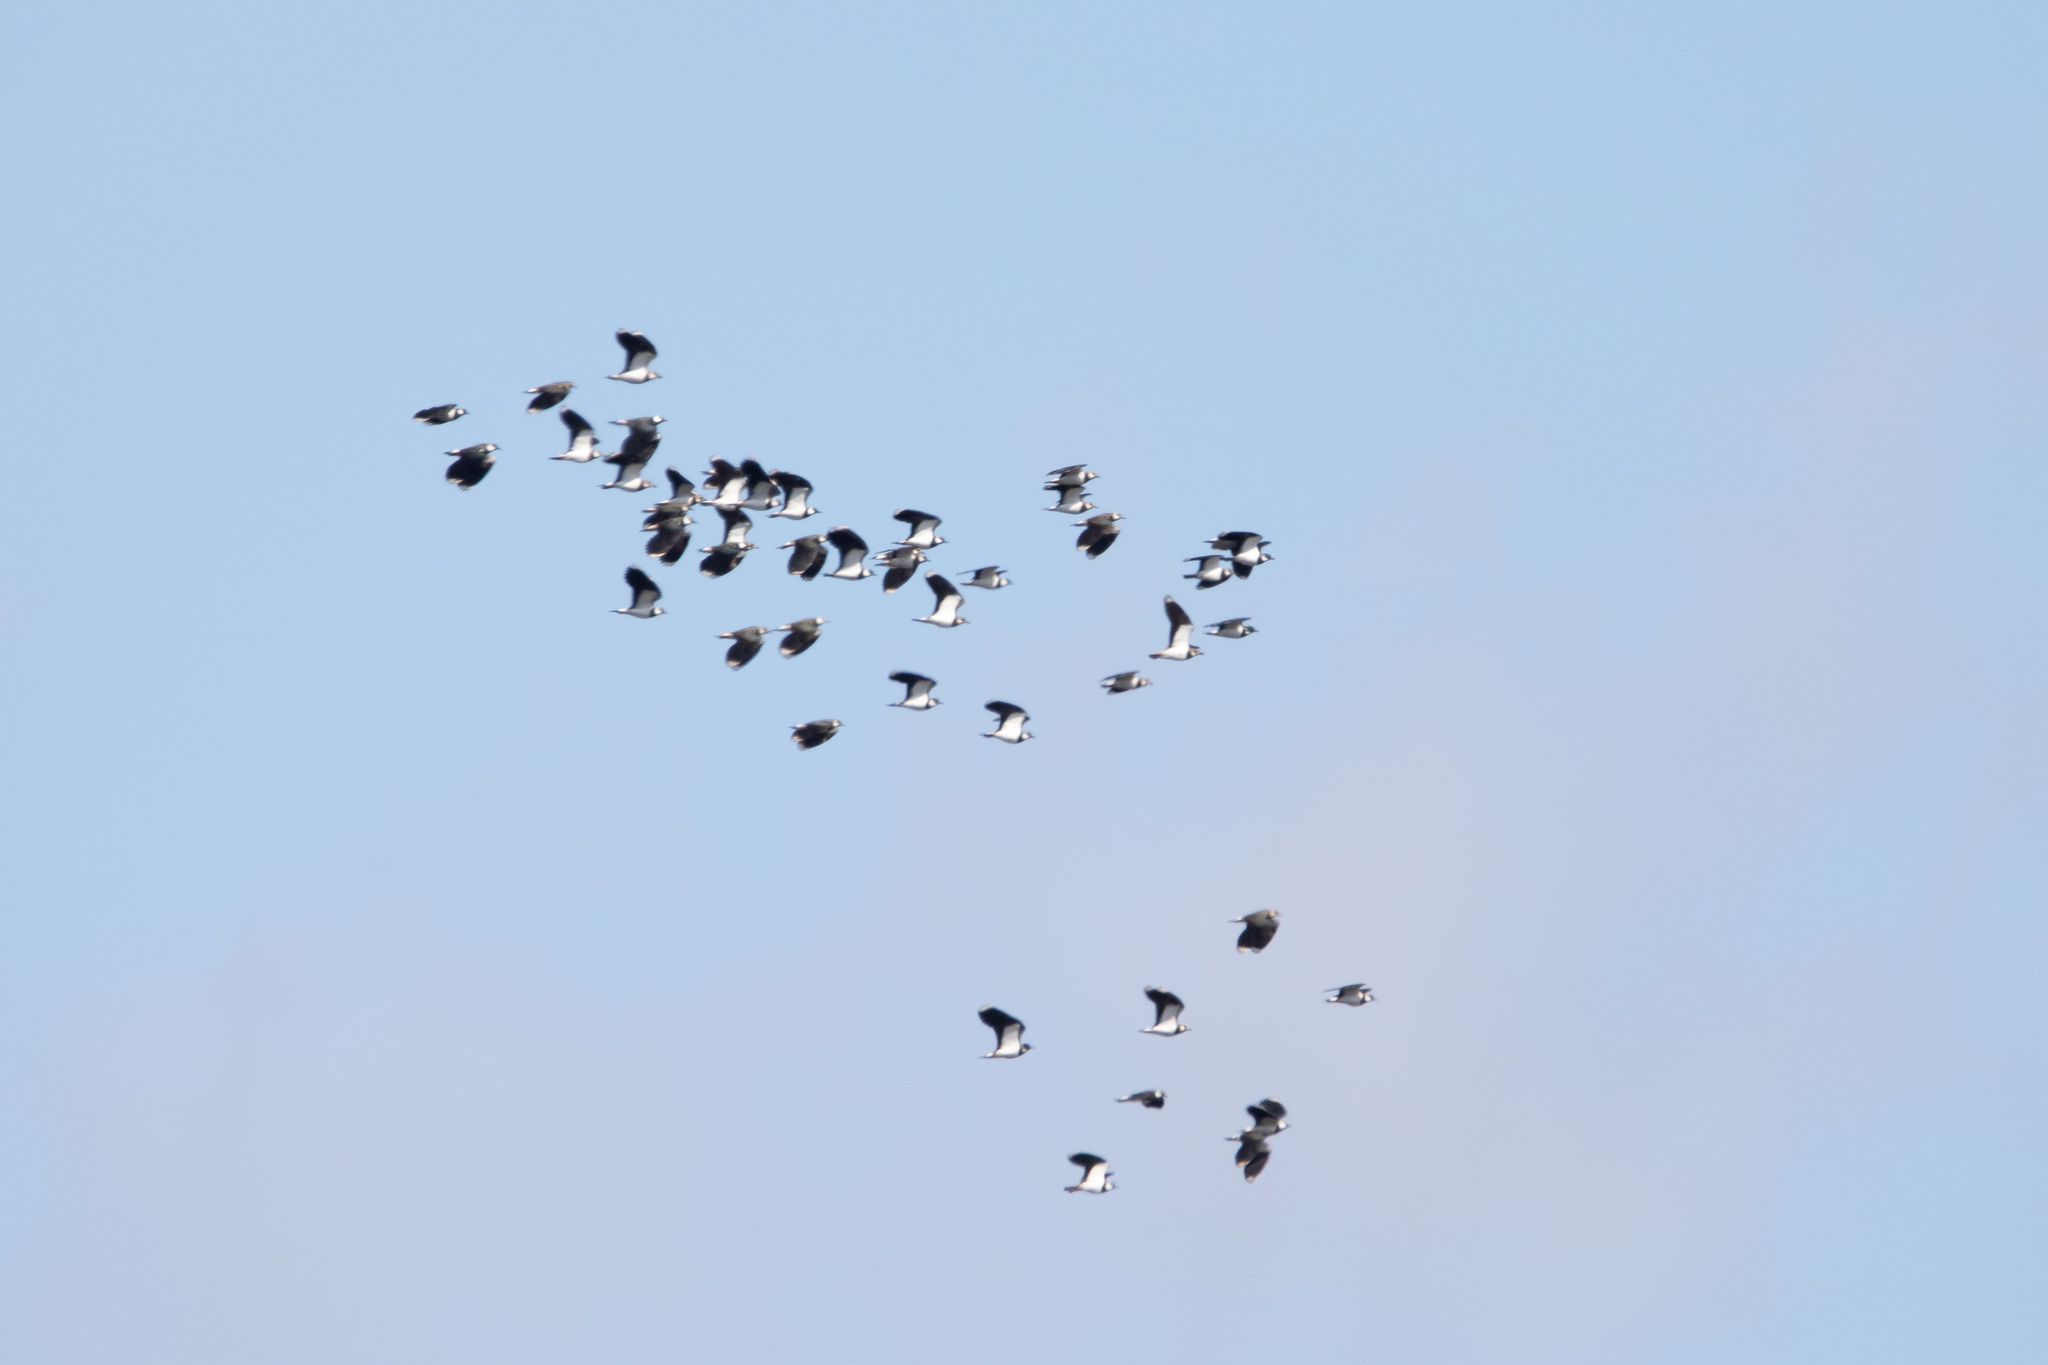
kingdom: Animalia
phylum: Chordata
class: Aves
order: Charadriiformes
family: Charadriidae
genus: Vanellus
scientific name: Vanellus vanellus
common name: Northern lapwing
